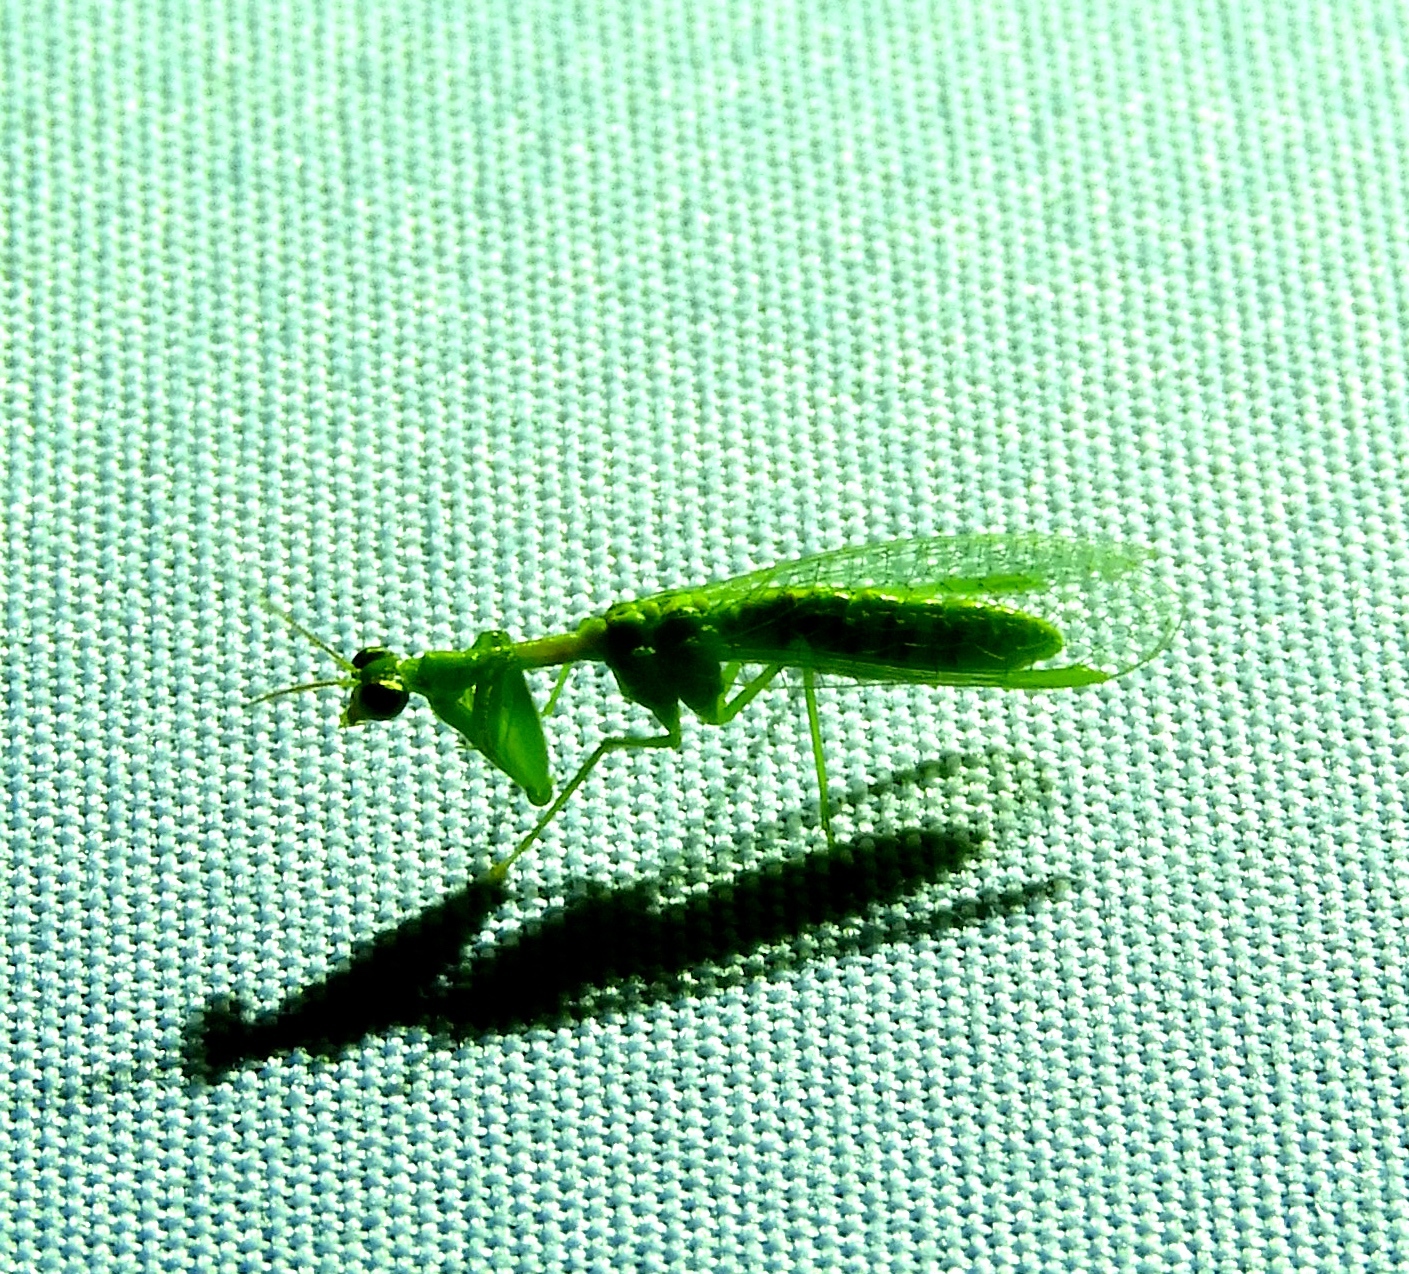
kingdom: Animalia
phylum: Arthropoda
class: Insecta
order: Neuroptera
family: Mantispidae
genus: Zeugomantispa
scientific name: Zeugomantispa minuta
